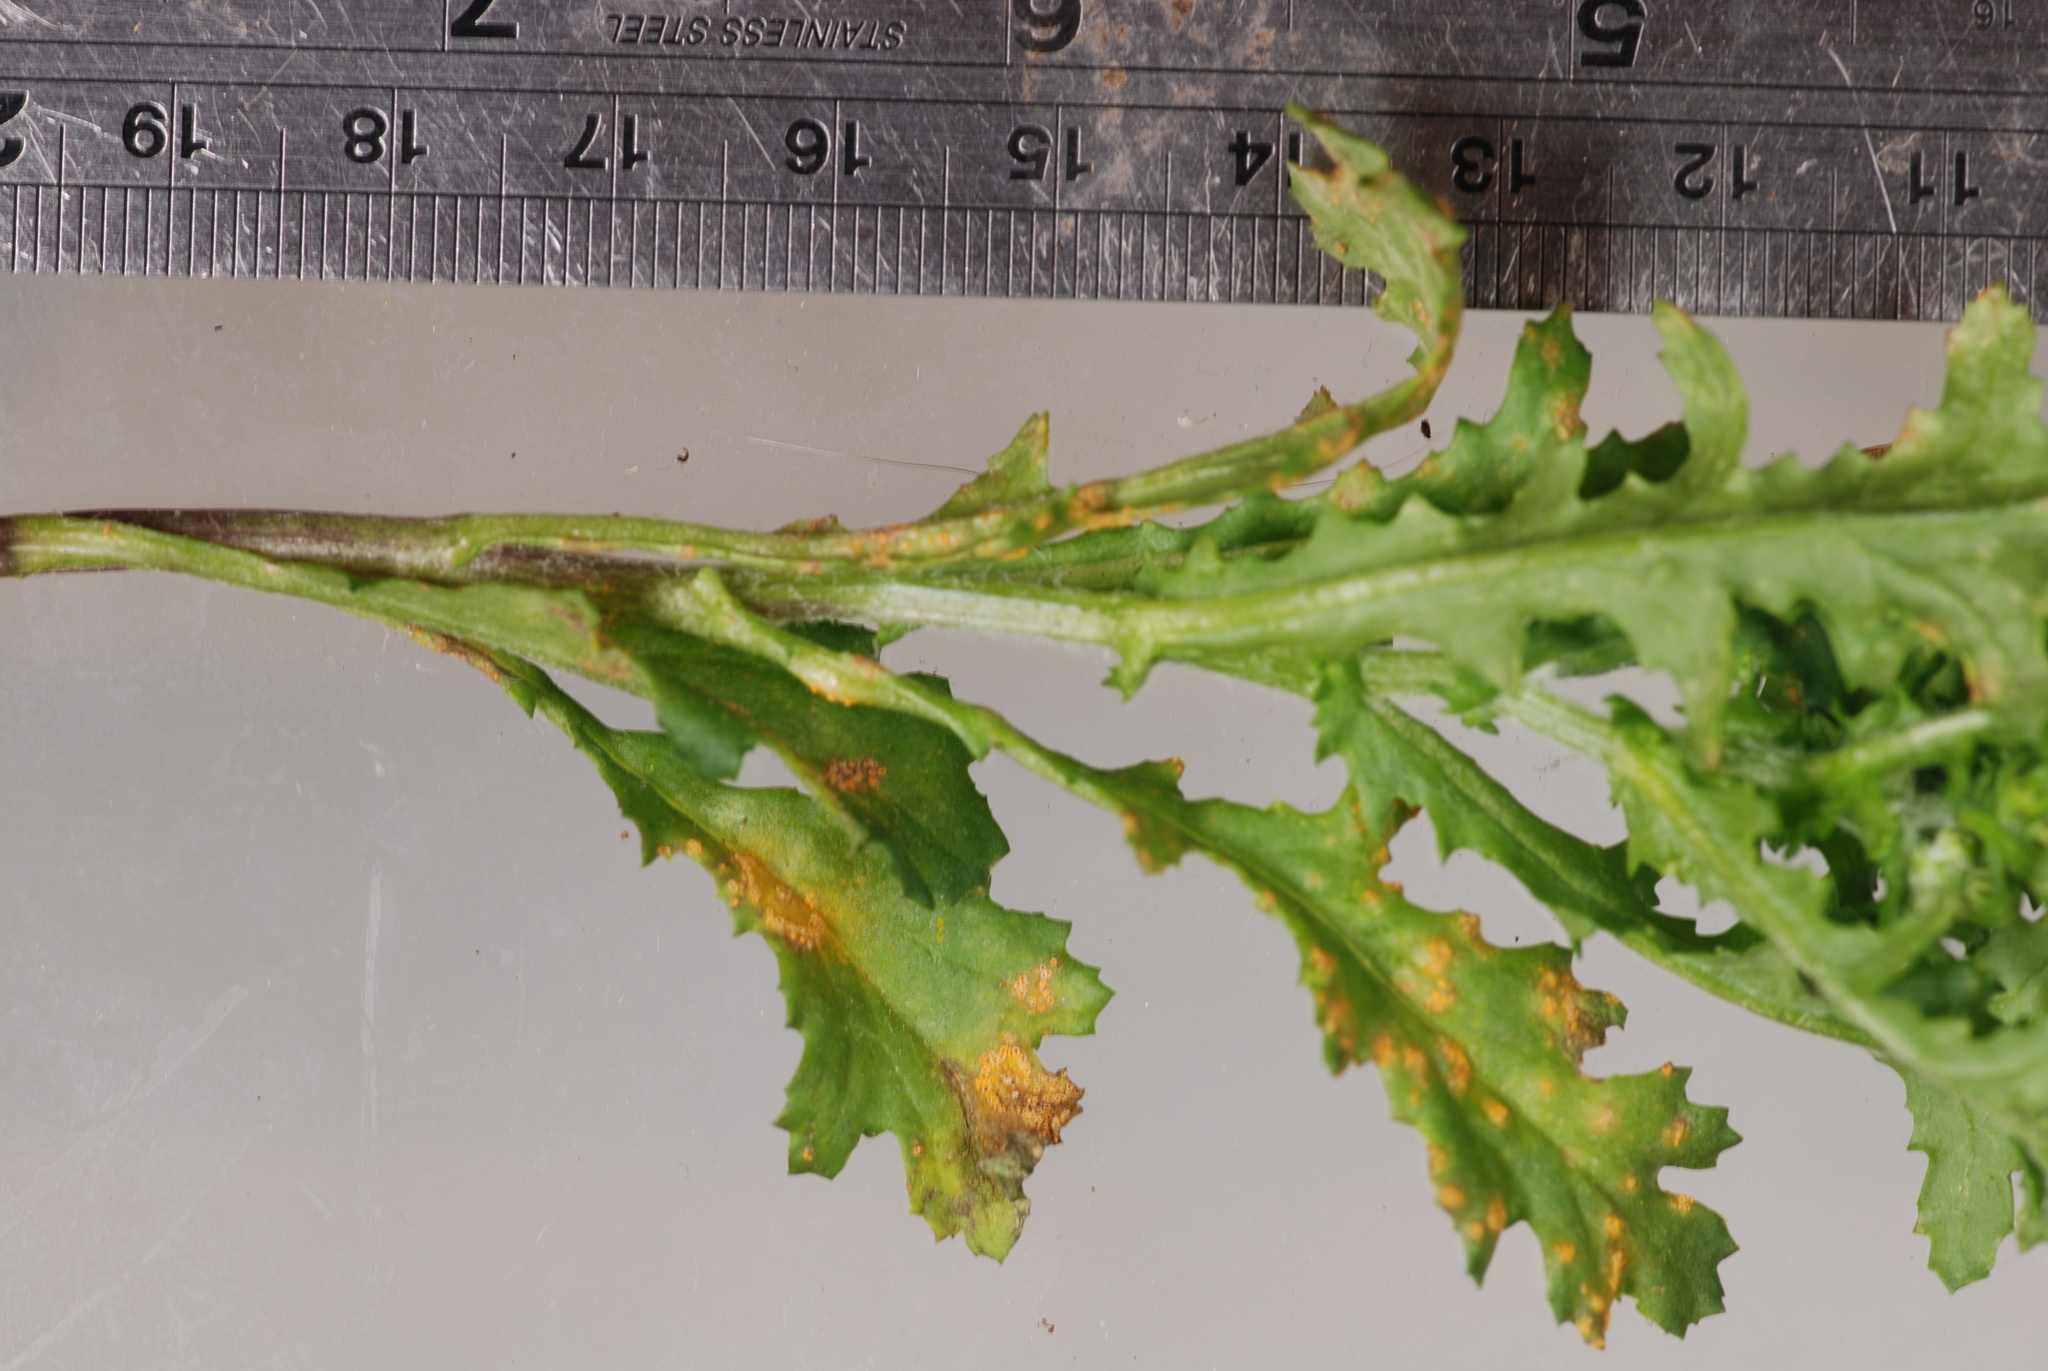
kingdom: Fungi
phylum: Basidiomycota
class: Pucciniomycetes
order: Pucciniales
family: Pucciniaceae
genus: Puccinia
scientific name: Puccinia lagenophorae
